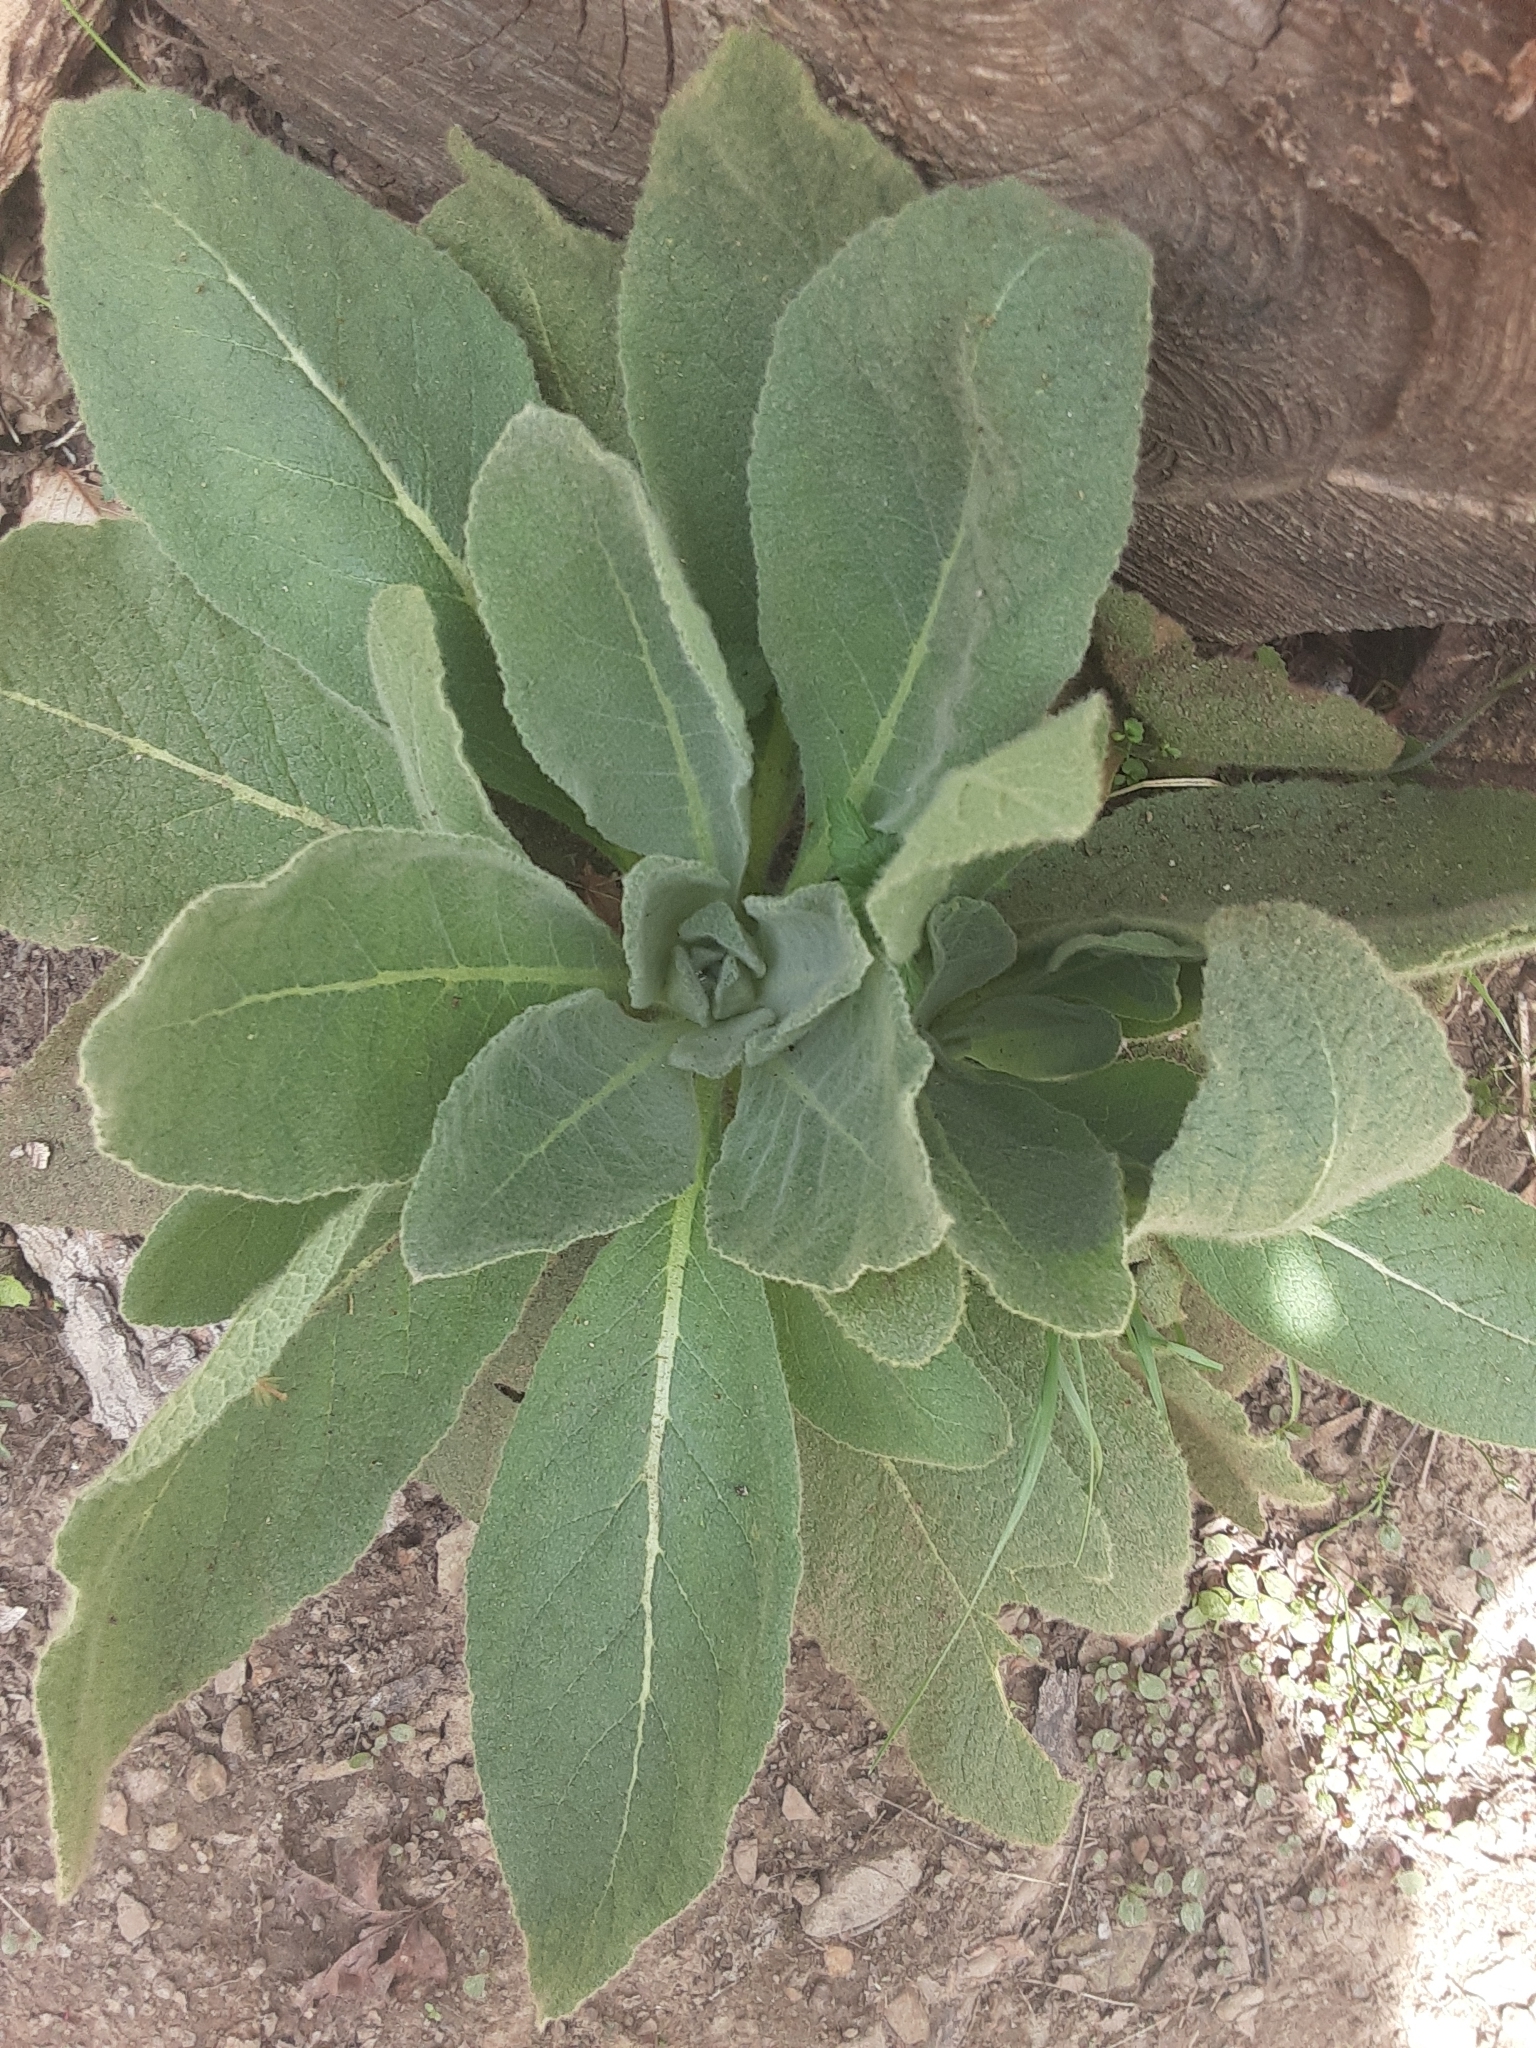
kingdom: Plantae
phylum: Tracheophyta
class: Magnoliopsida
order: Lamiales
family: Scrophulariaceae
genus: Verbascum
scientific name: Verbascum thapsus
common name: Common mullein
